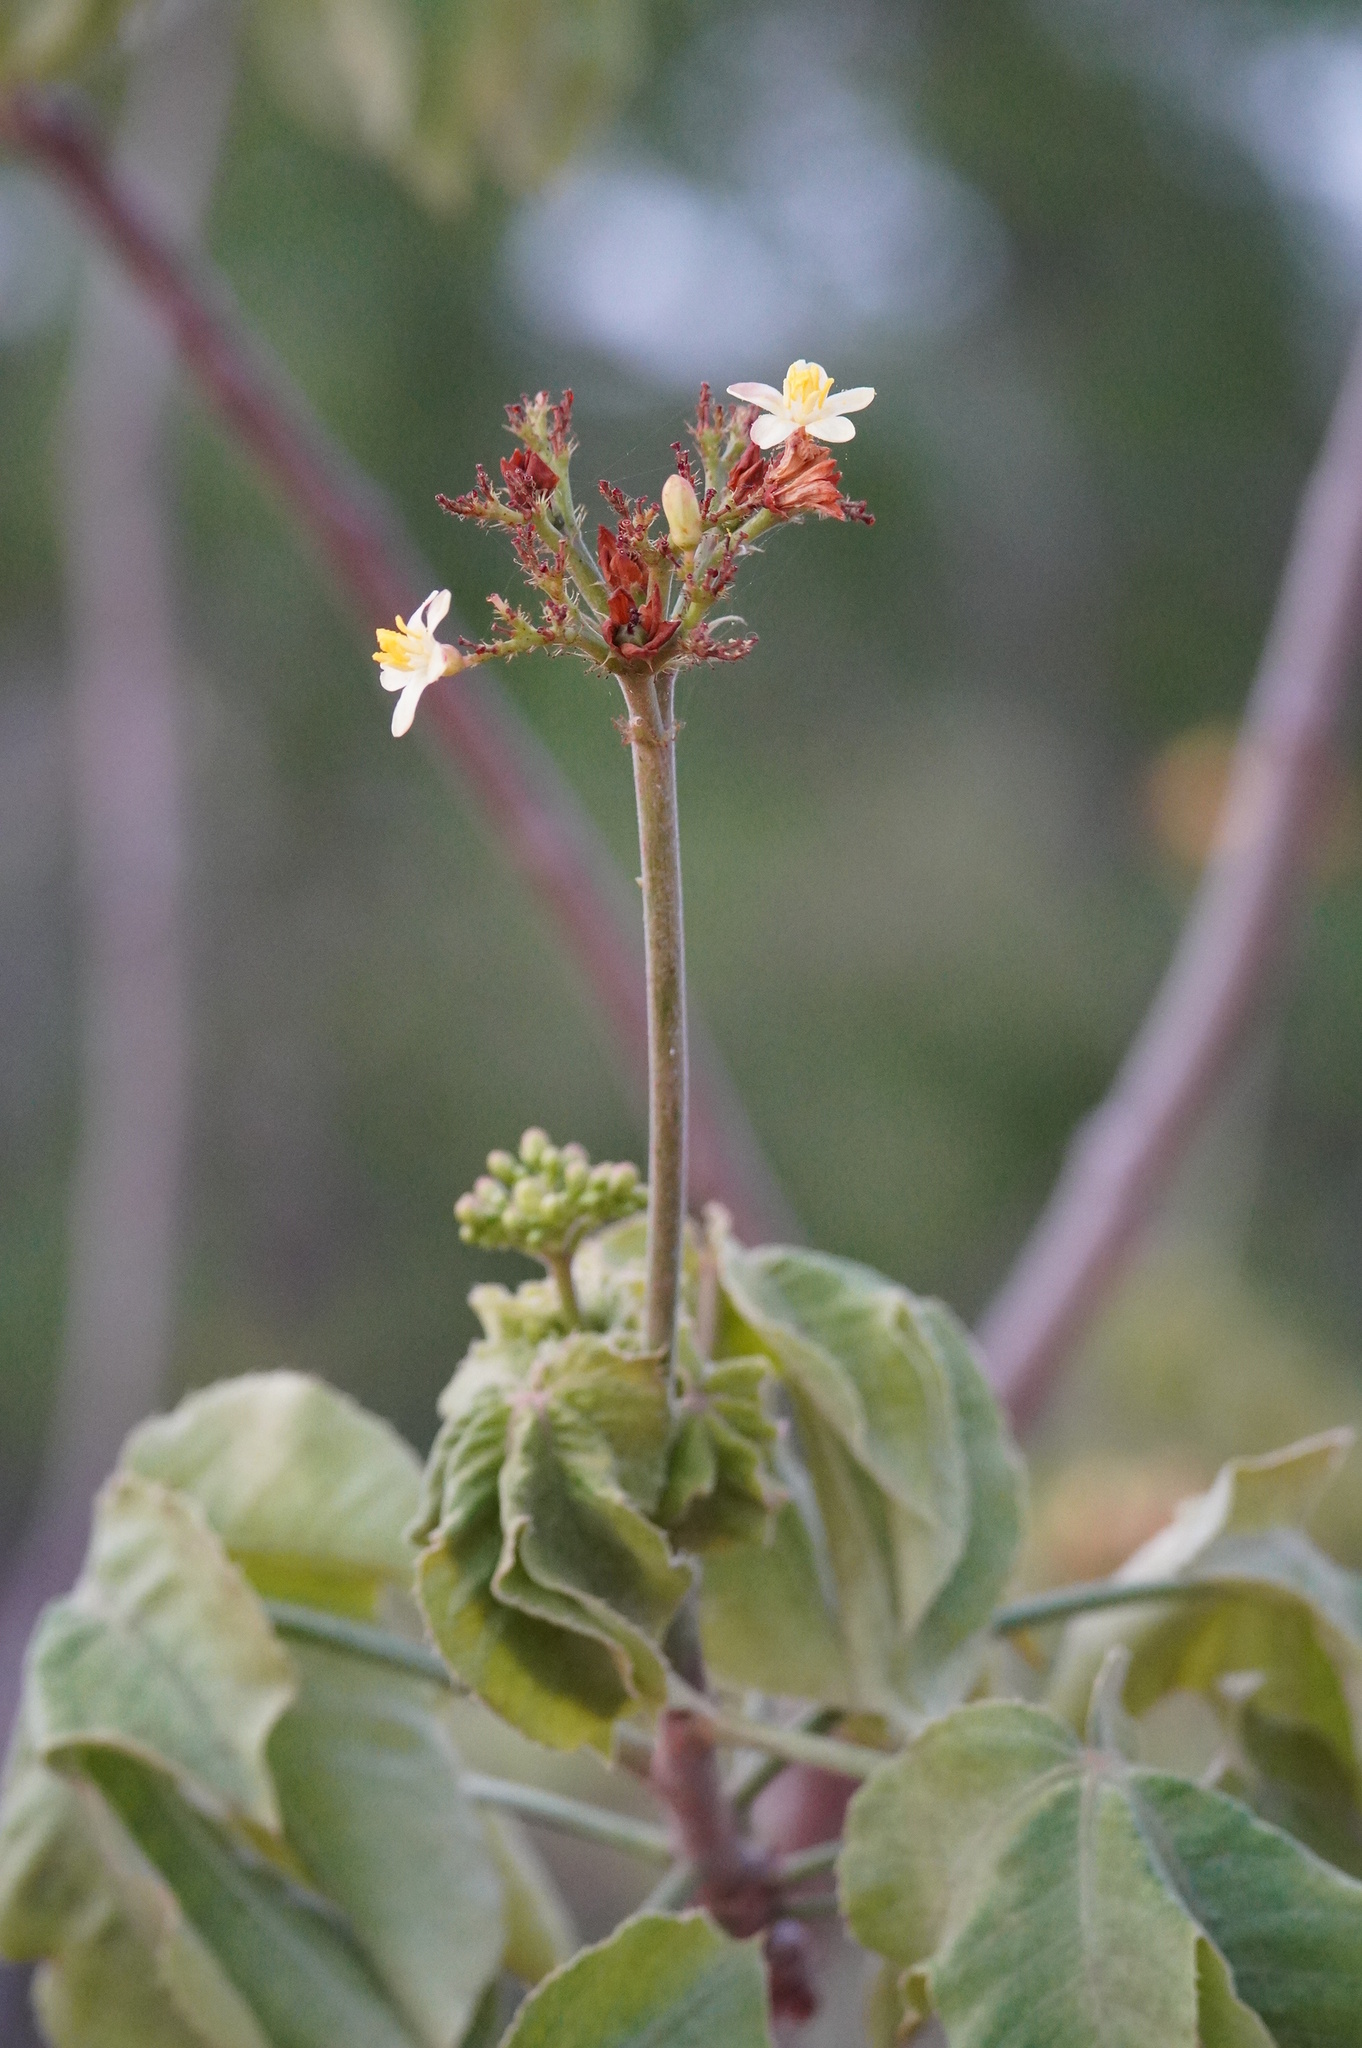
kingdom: Plantae
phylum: Tracheophyta
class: Magnoliopsida
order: Malpighiales
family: Euphorbiaceae
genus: Jatropha
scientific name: Jatropha mollissima
